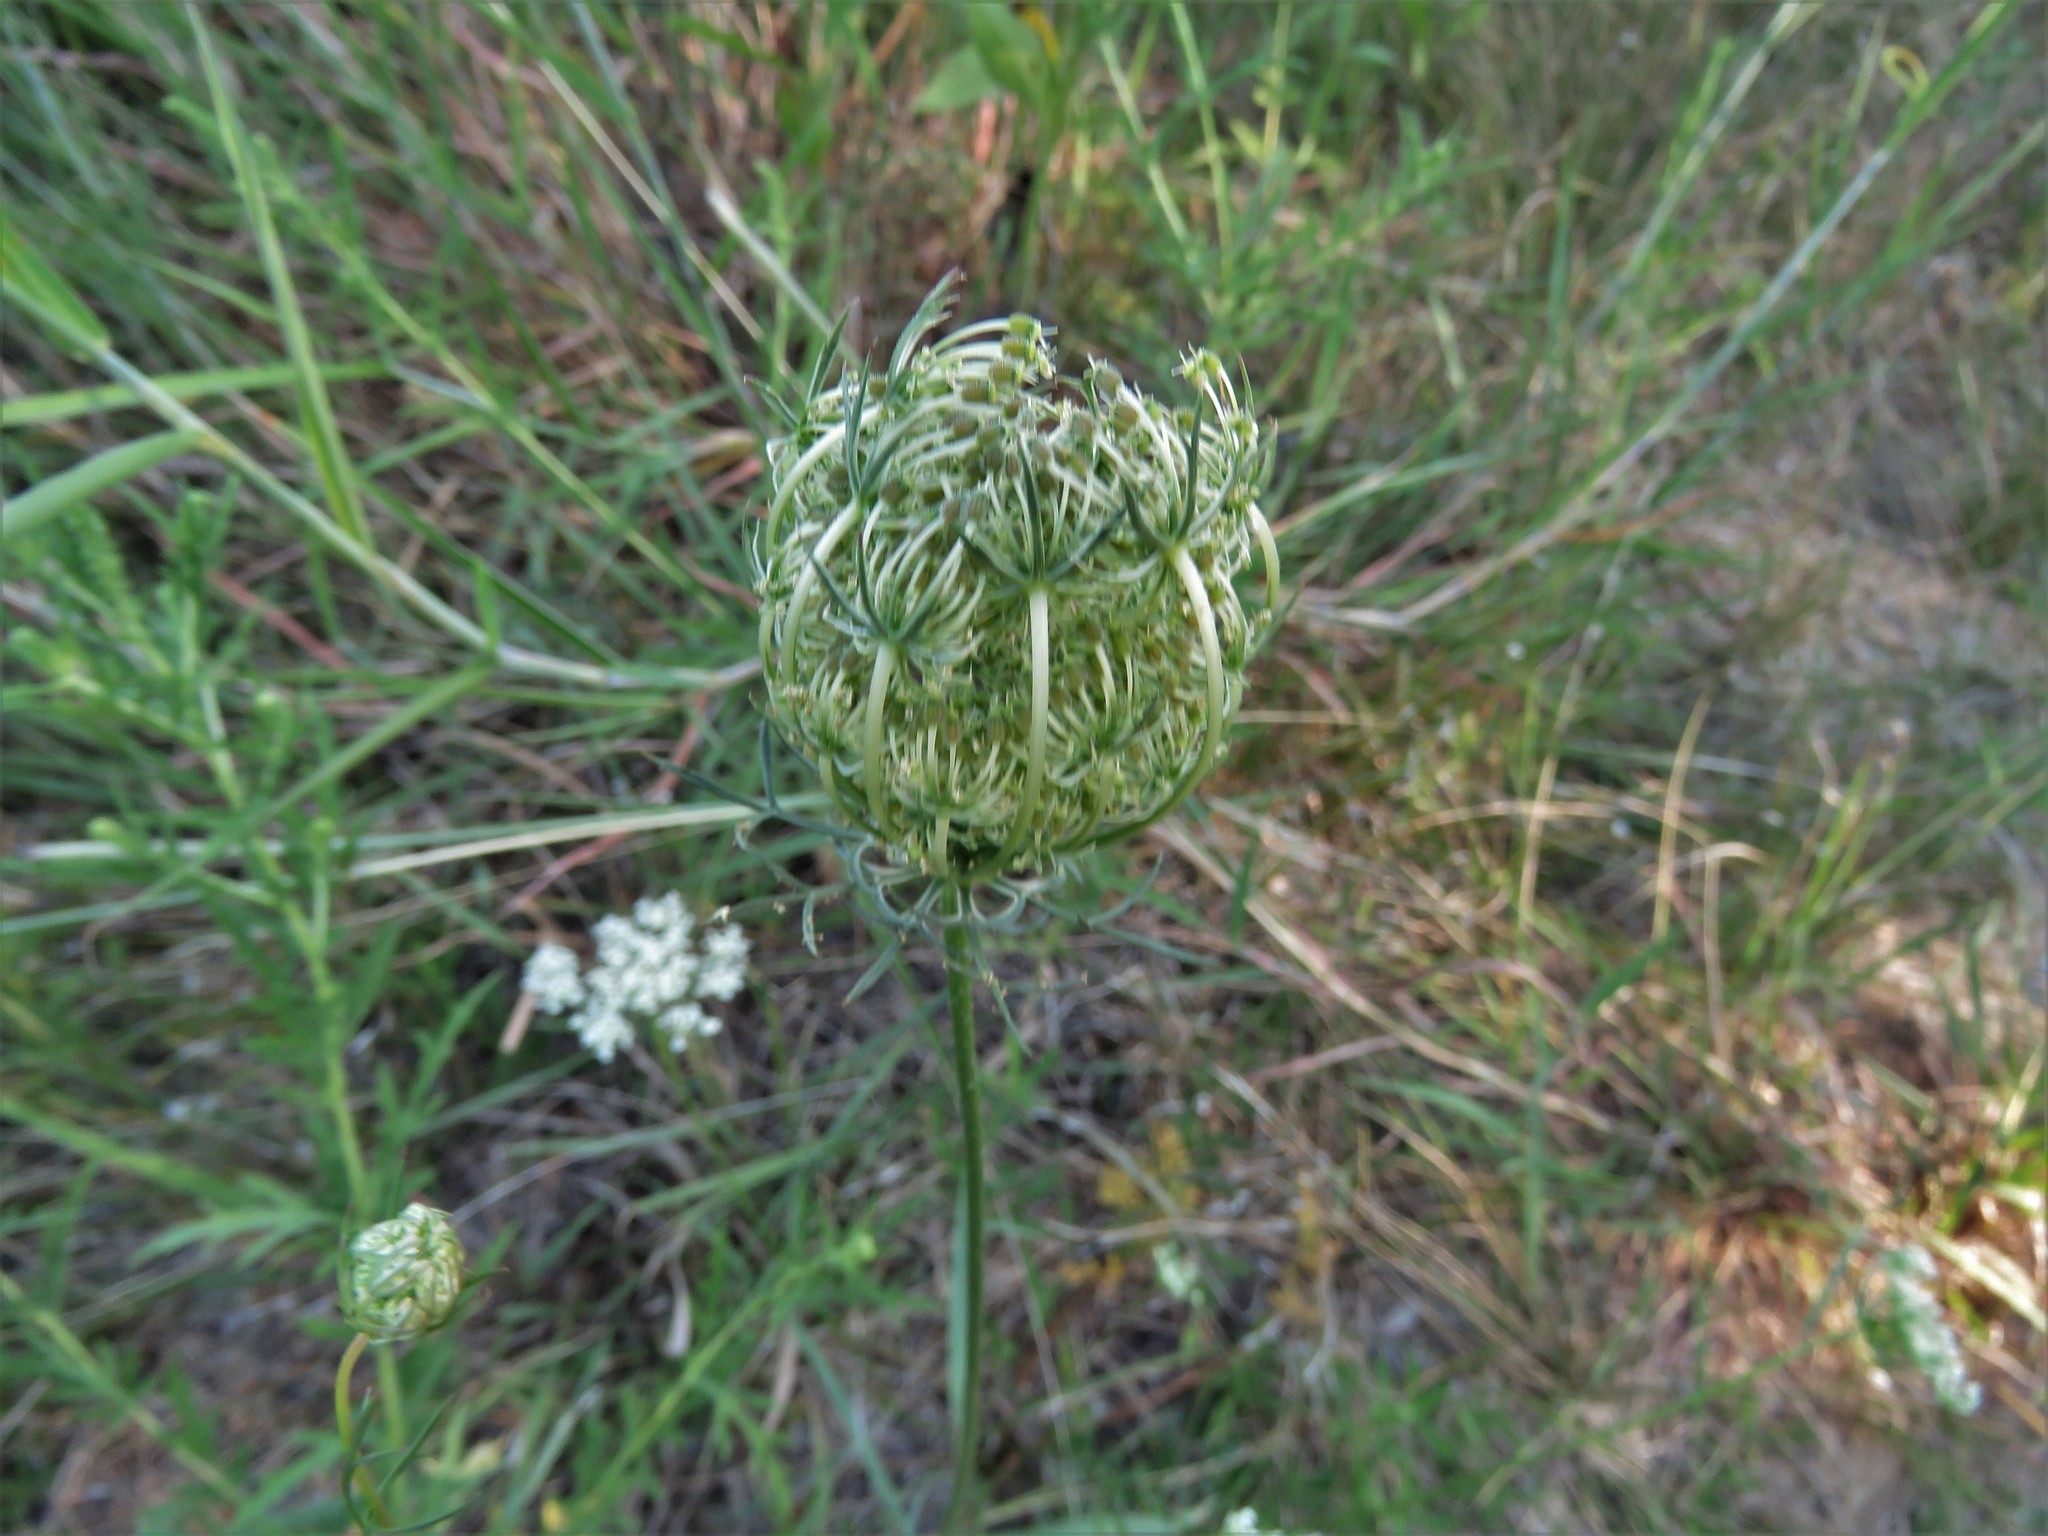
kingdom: Plantae
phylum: Tracheophyta
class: Magnoliopsida
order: Apiales
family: Apiaceae
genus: Daucus
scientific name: Daucus carota
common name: Wild carrot
